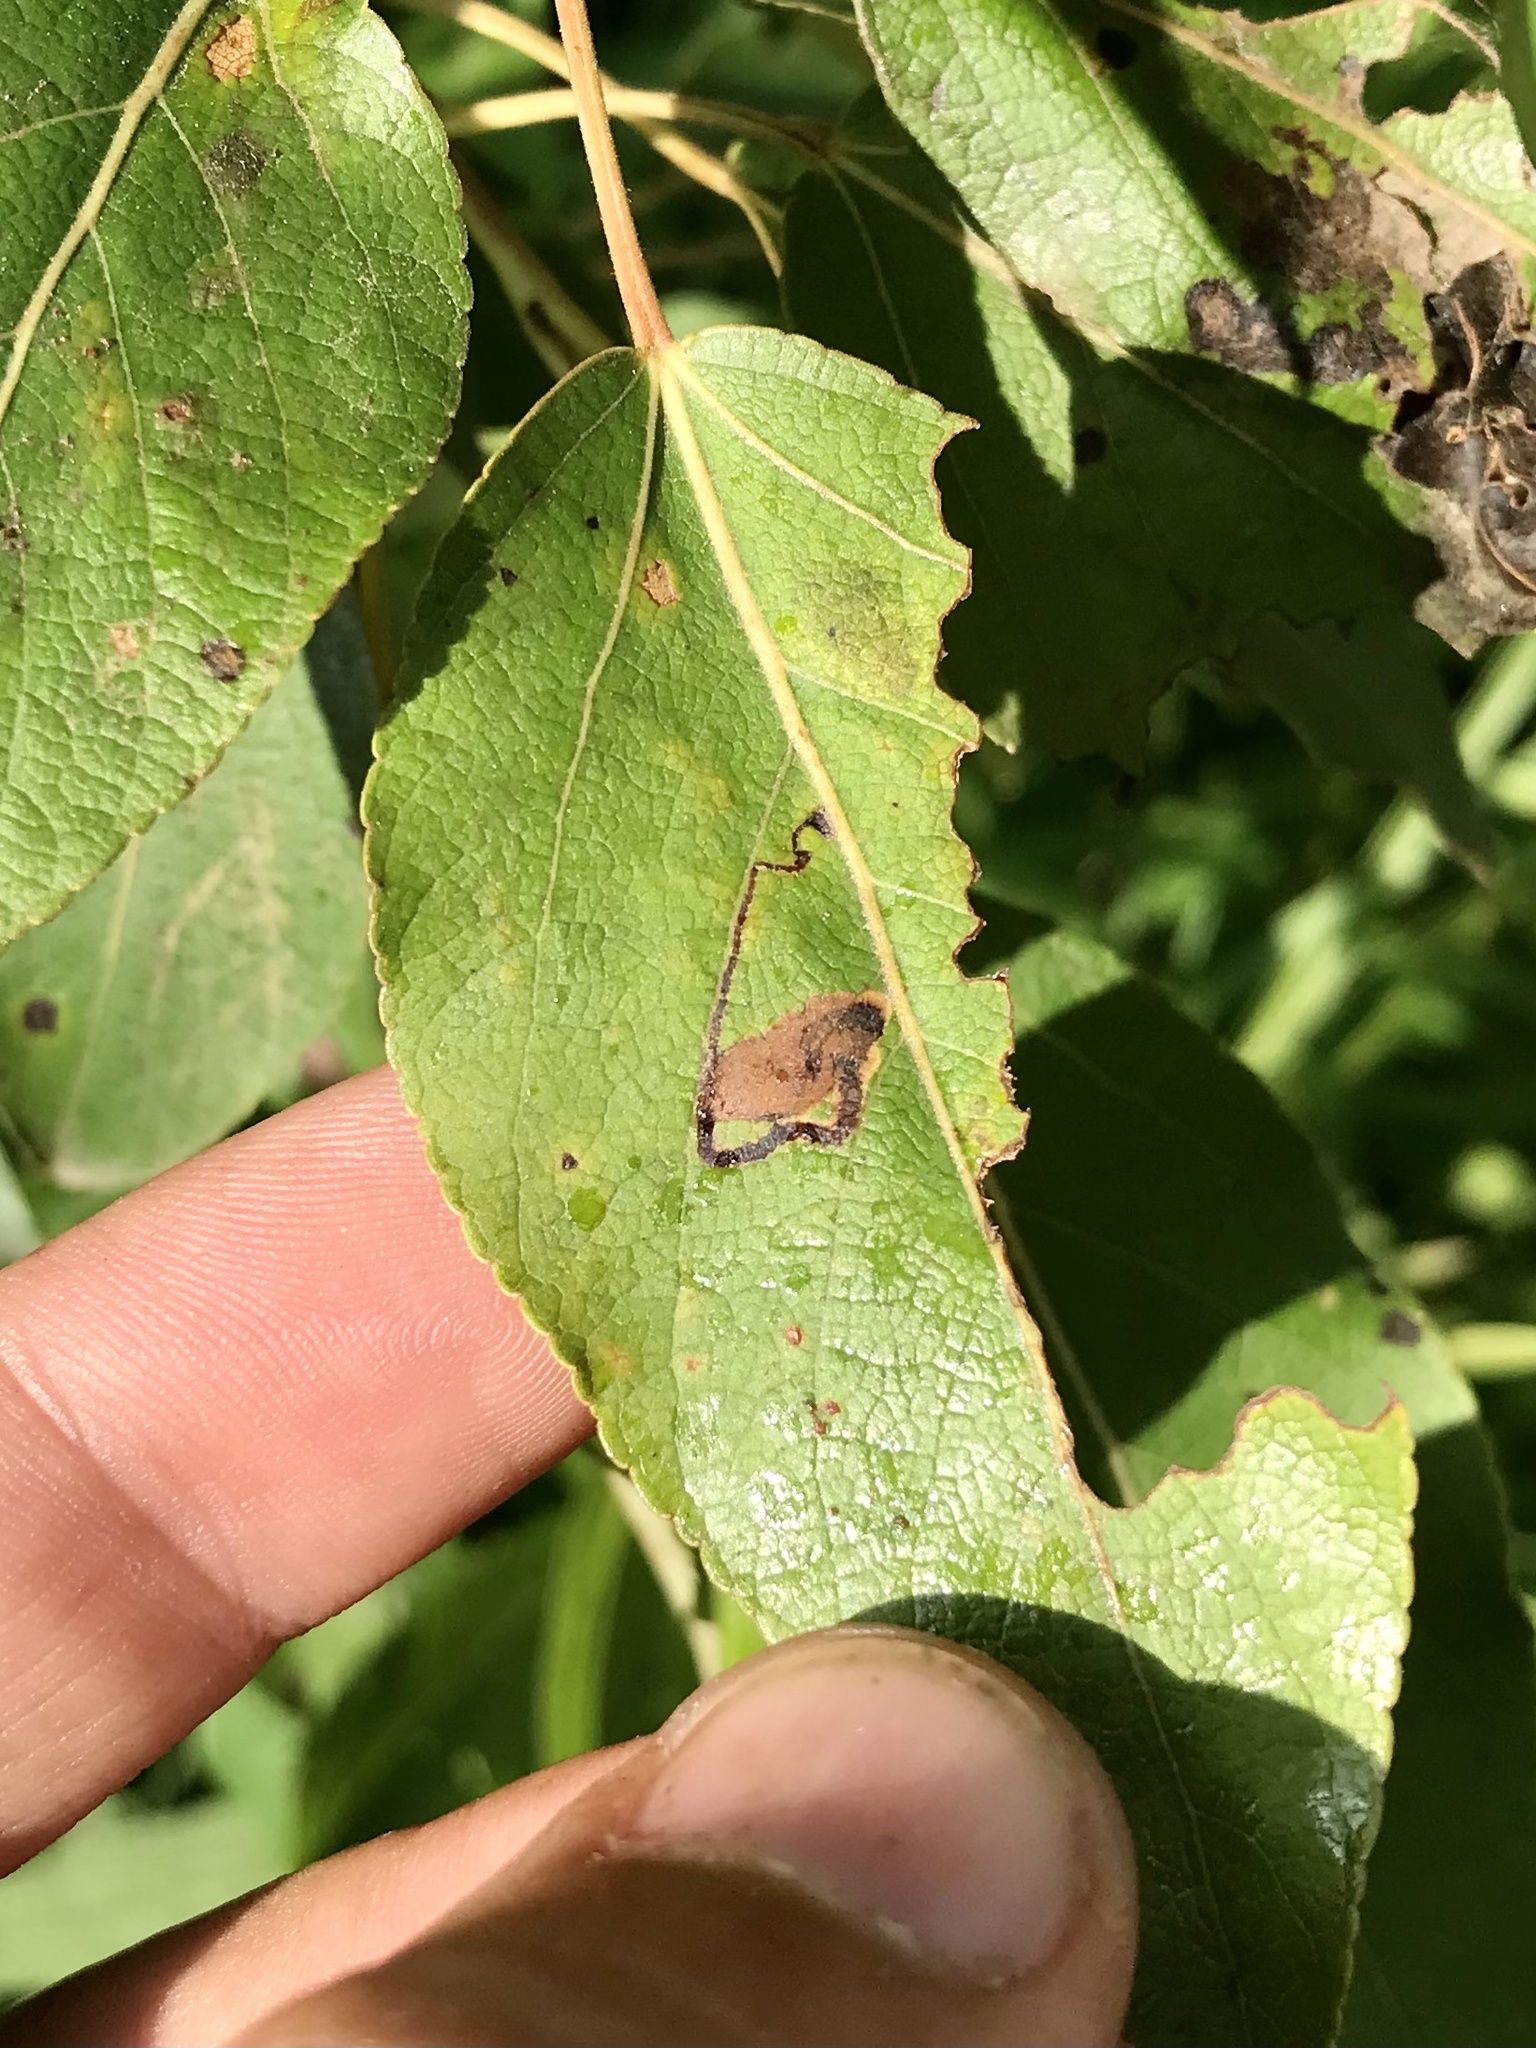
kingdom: Animalia
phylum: Arthropoda
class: Insecta
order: Lepidoptera
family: Nepticulidae
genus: Stigmella
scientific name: Stigmella populetorum
